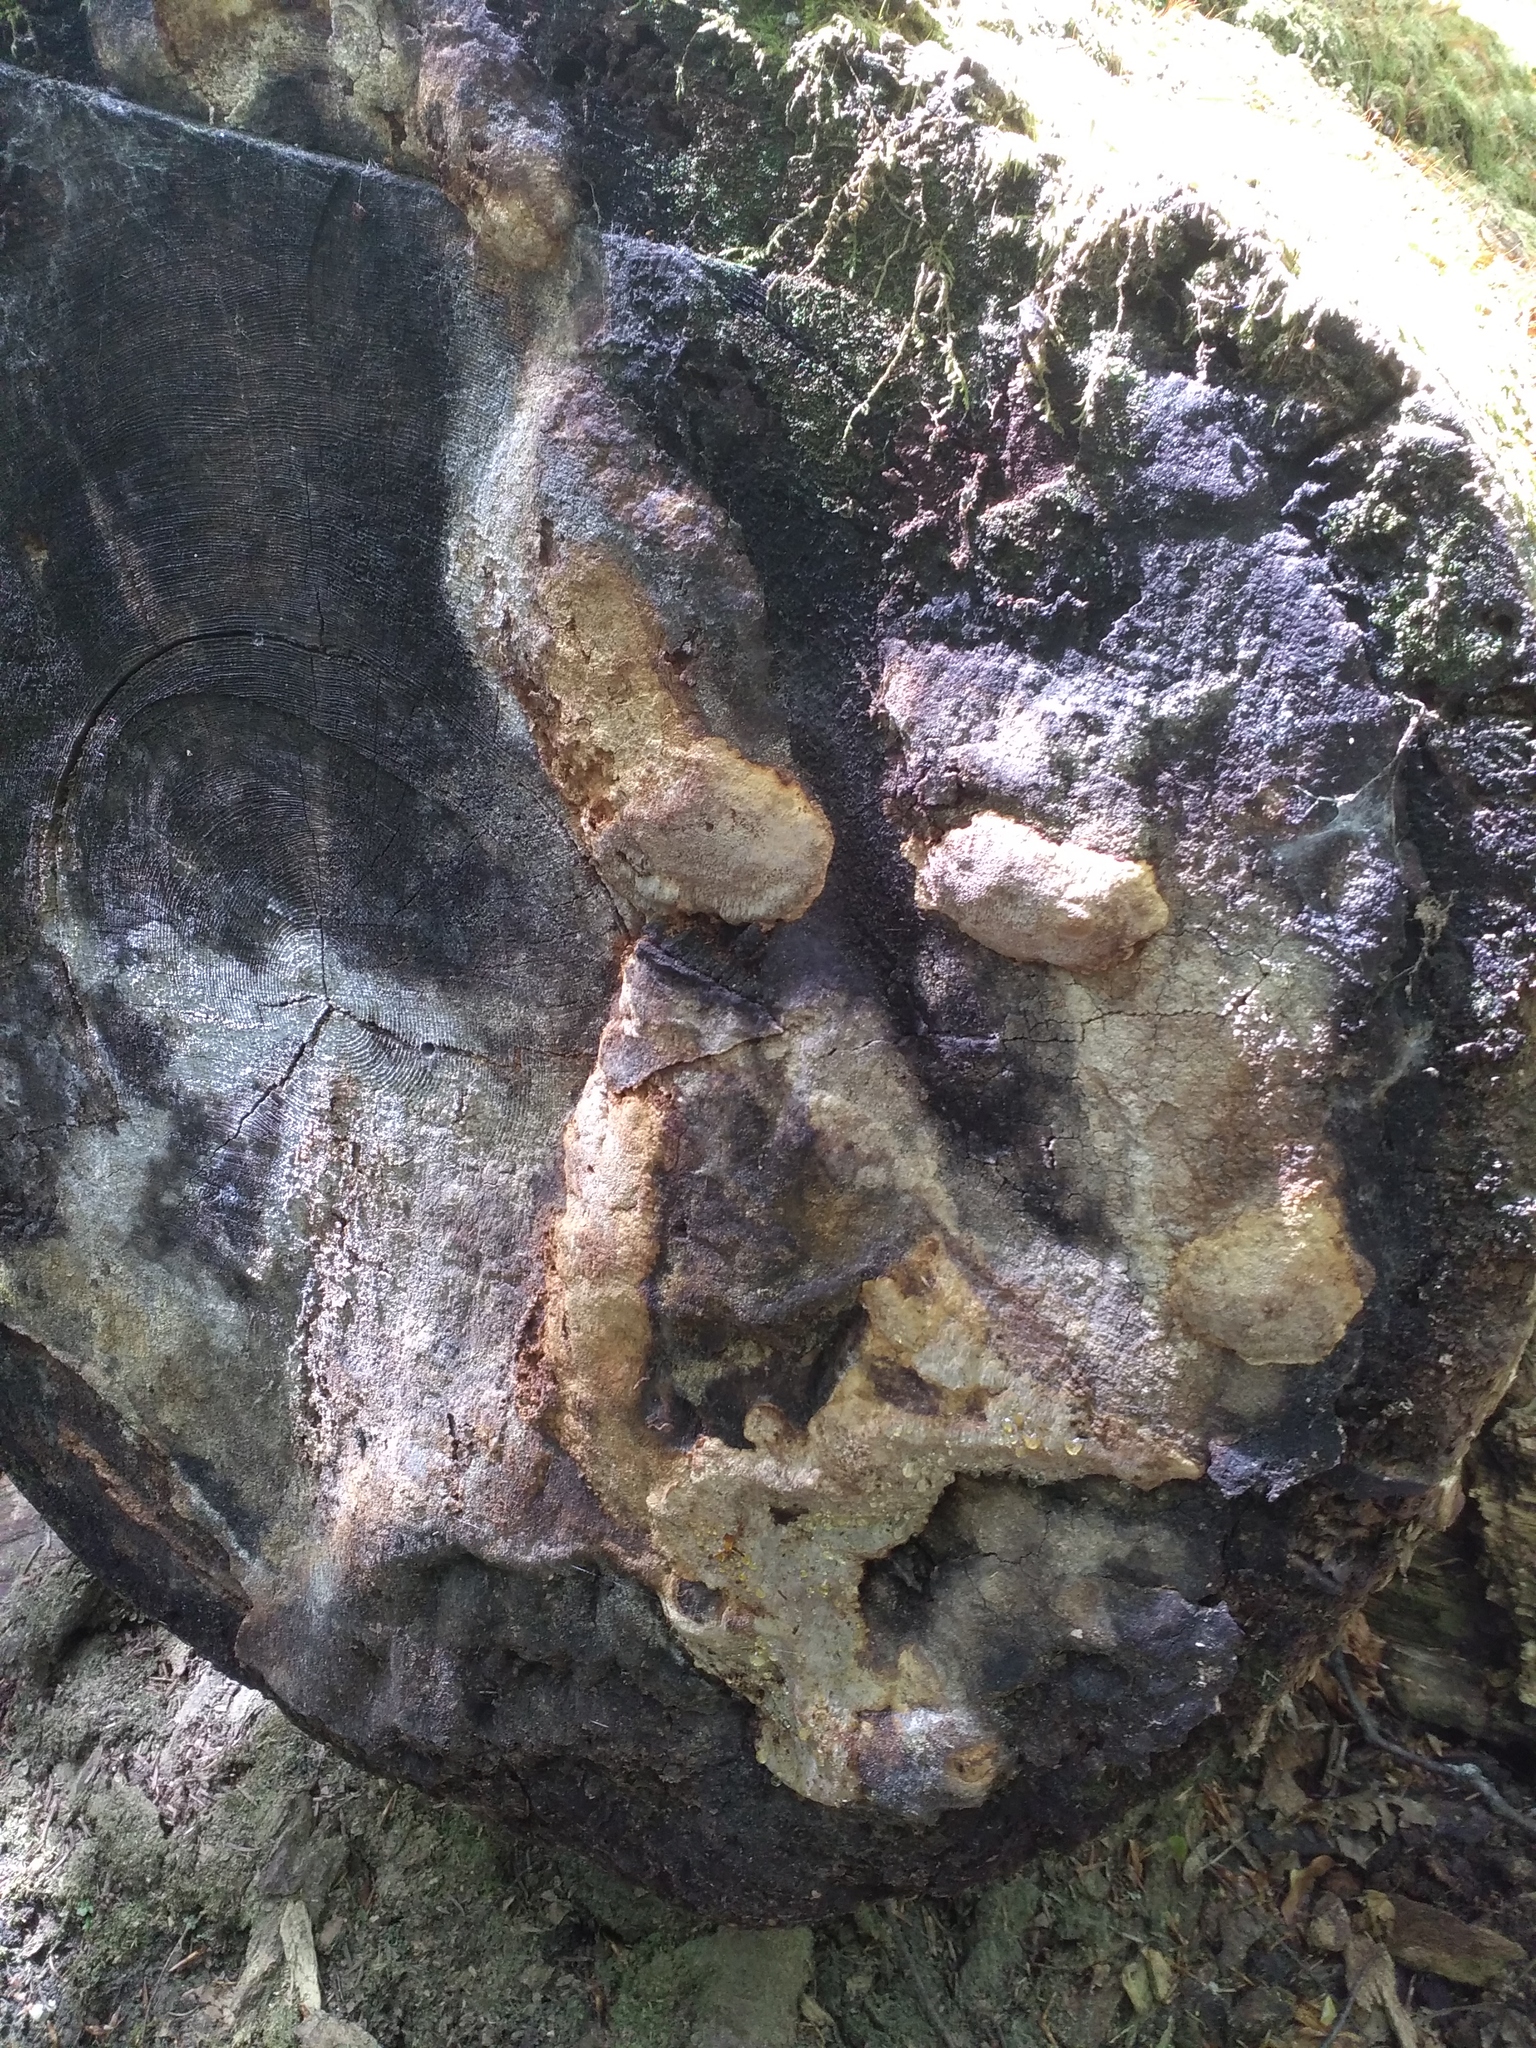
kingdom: Fungi
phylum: Basidiomycota
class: Agaricomycetes
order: Hymenochaetales
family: Hymenochaetaceae
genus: Phellinidium
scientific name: Phellinidium pouzarii
